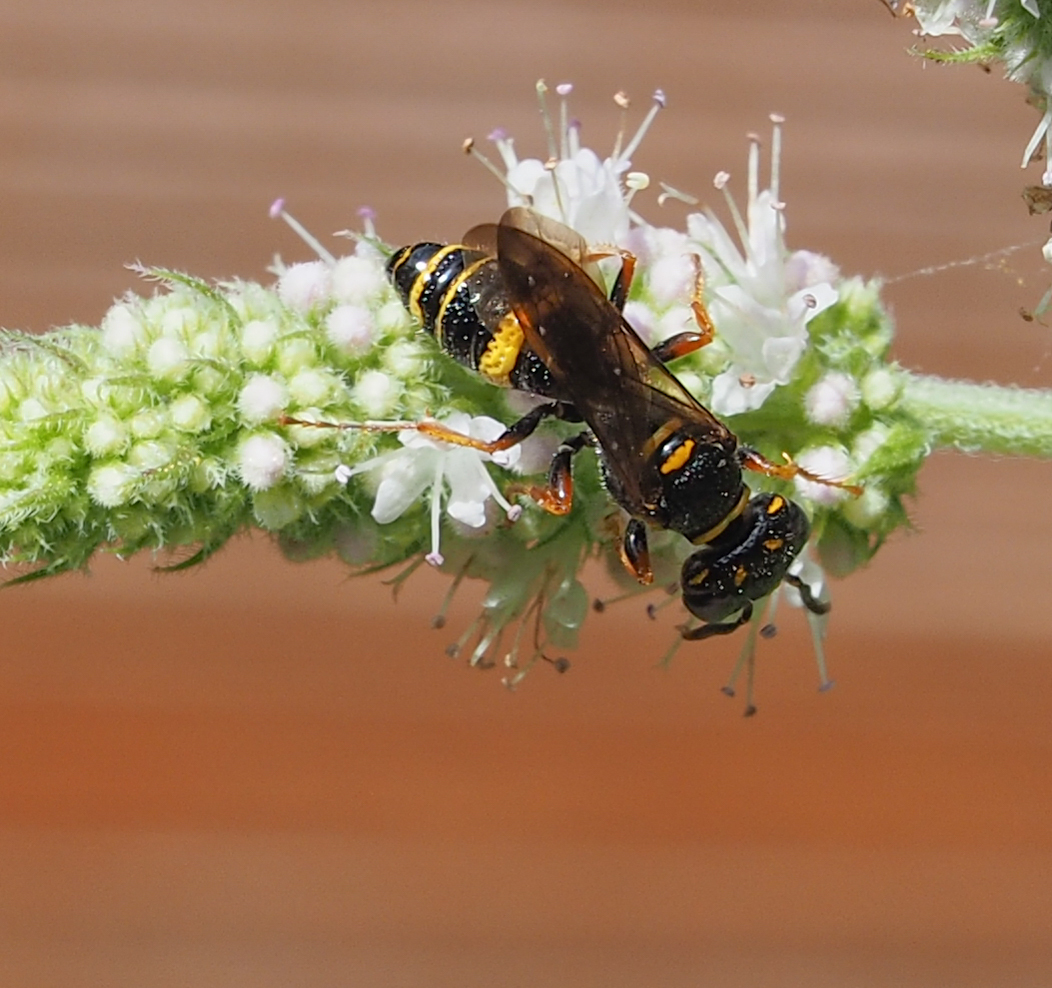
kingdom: Animalia
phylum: Arthropoda
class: Insecta
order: Hymenoptera
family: Crabronidae
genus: Philanthus
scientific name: Philanthus gibbosus
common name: Humped beewolf
